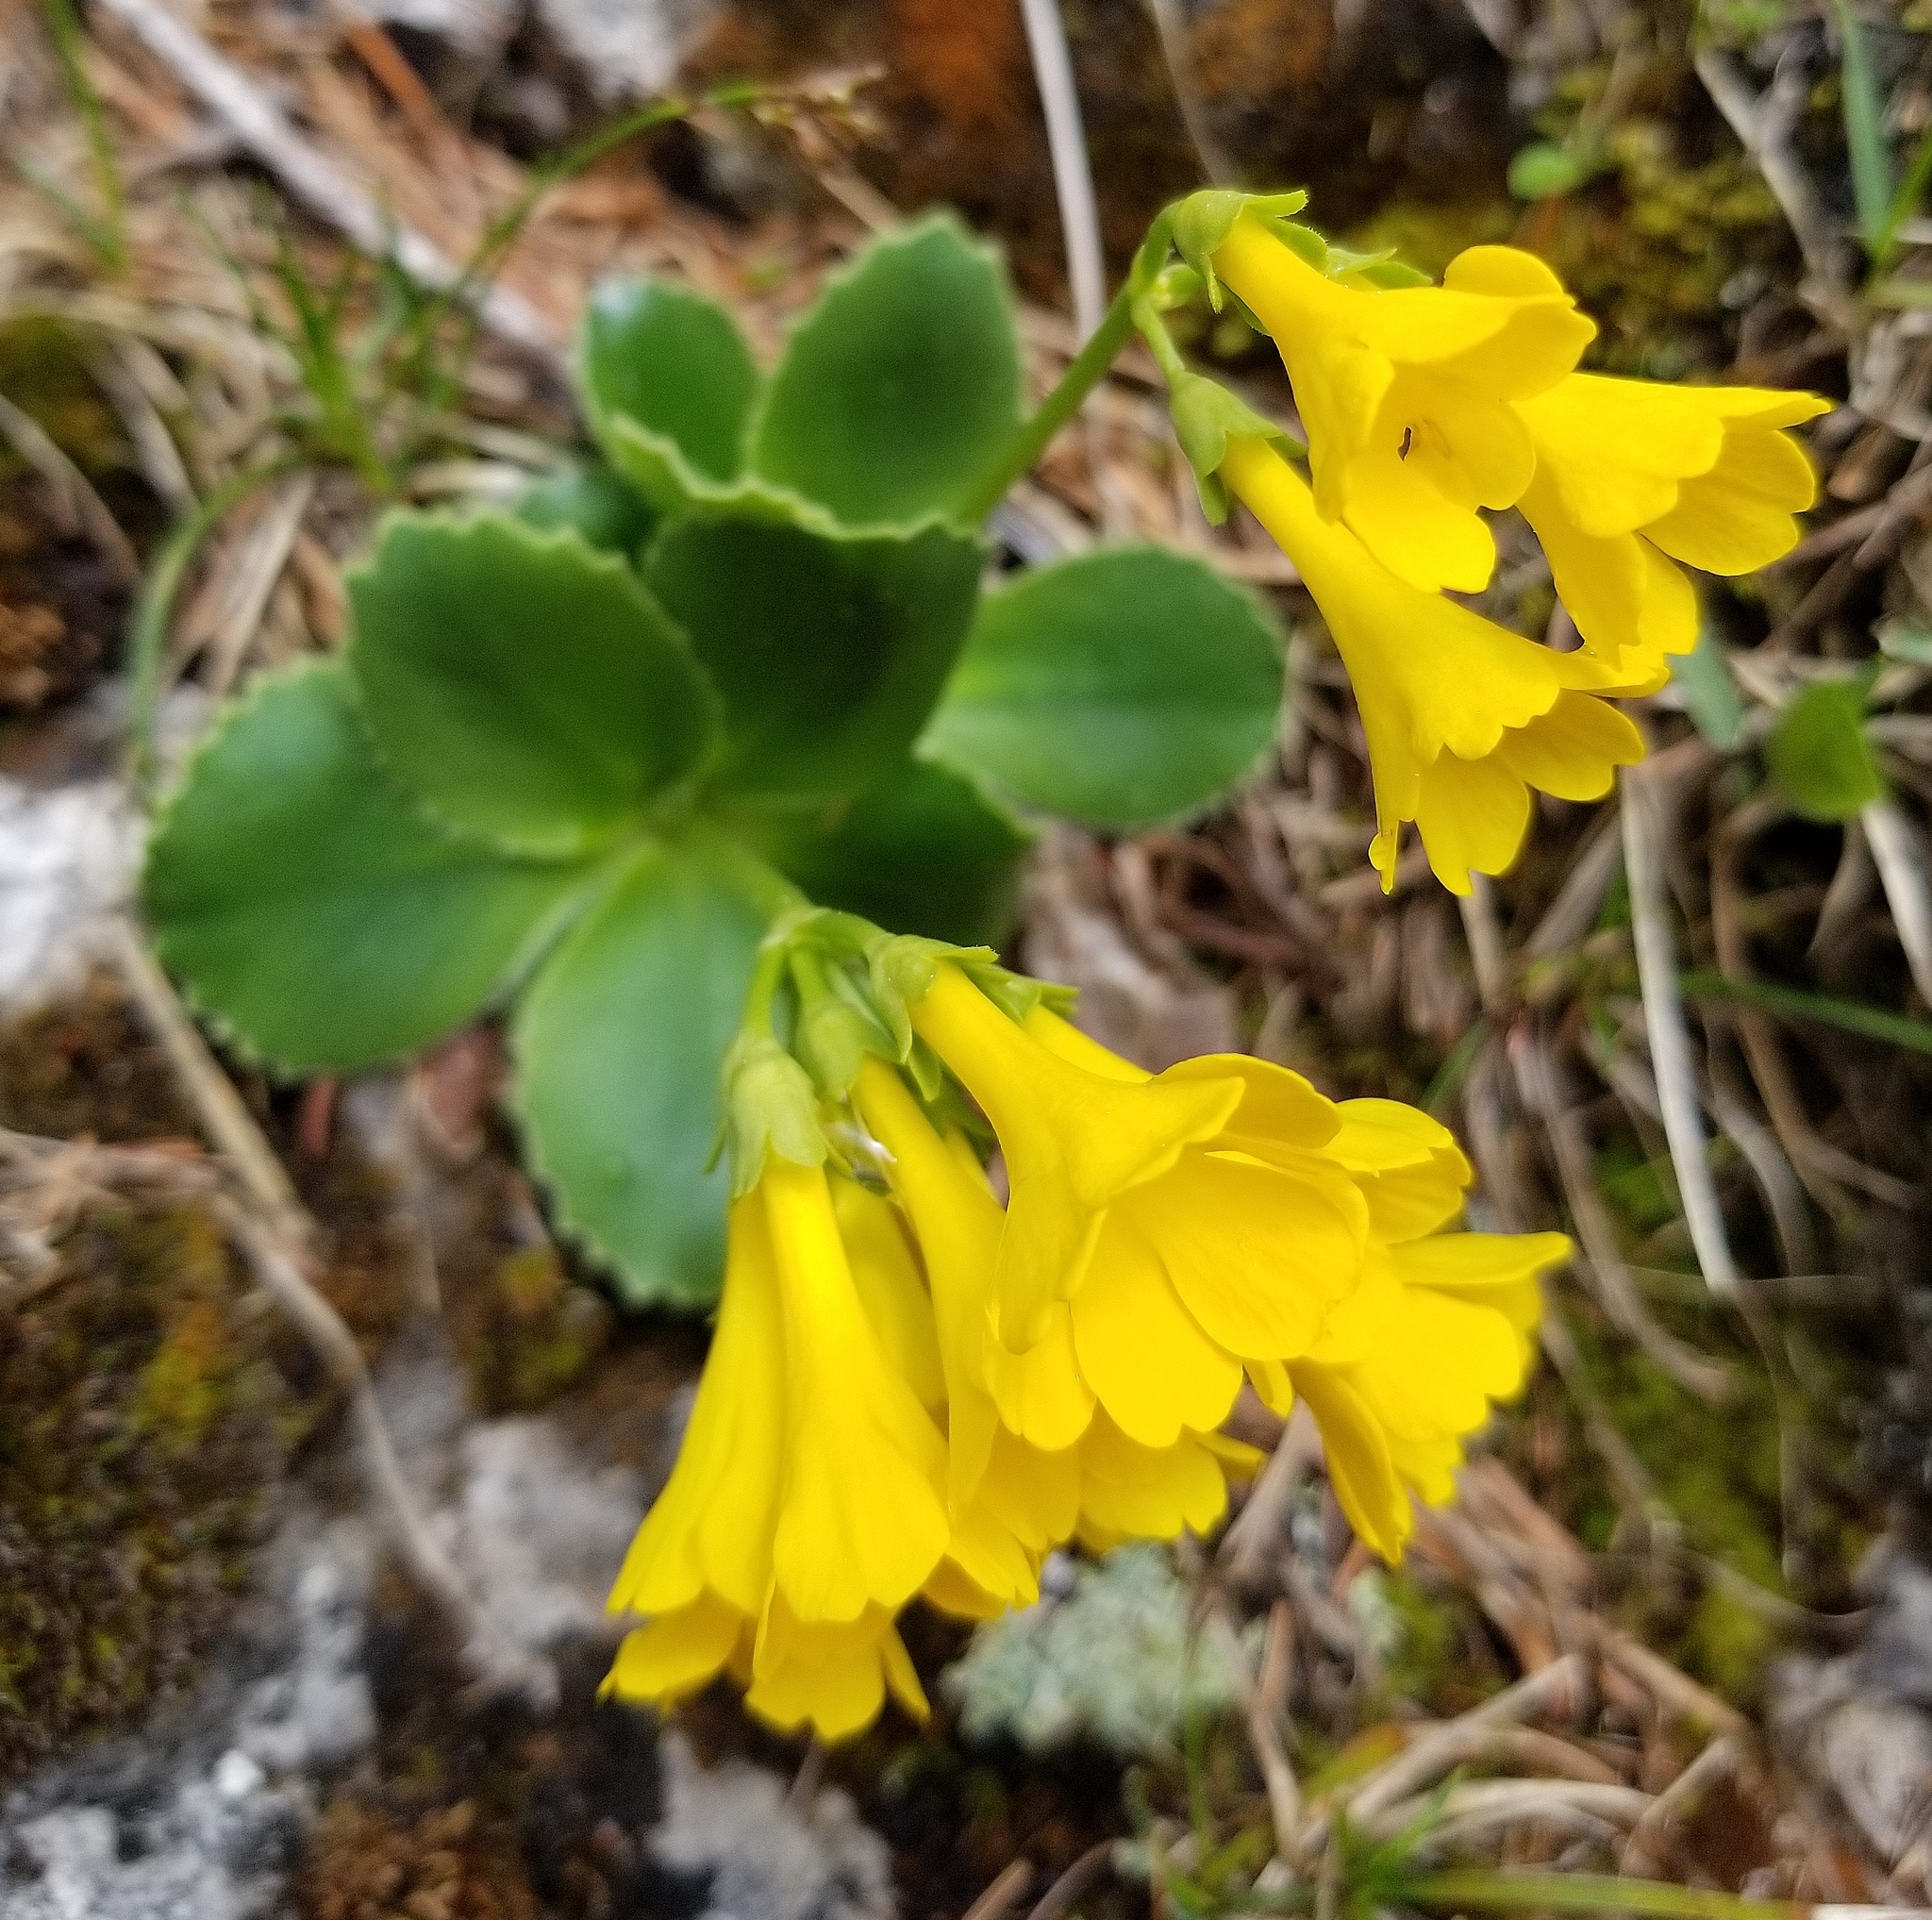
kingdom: Plantae
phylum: Tracheophyta
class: Magnoliopsida
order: Ericales
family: Primulaceae
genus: Primula
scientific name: Primula auricula
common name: Auricula
